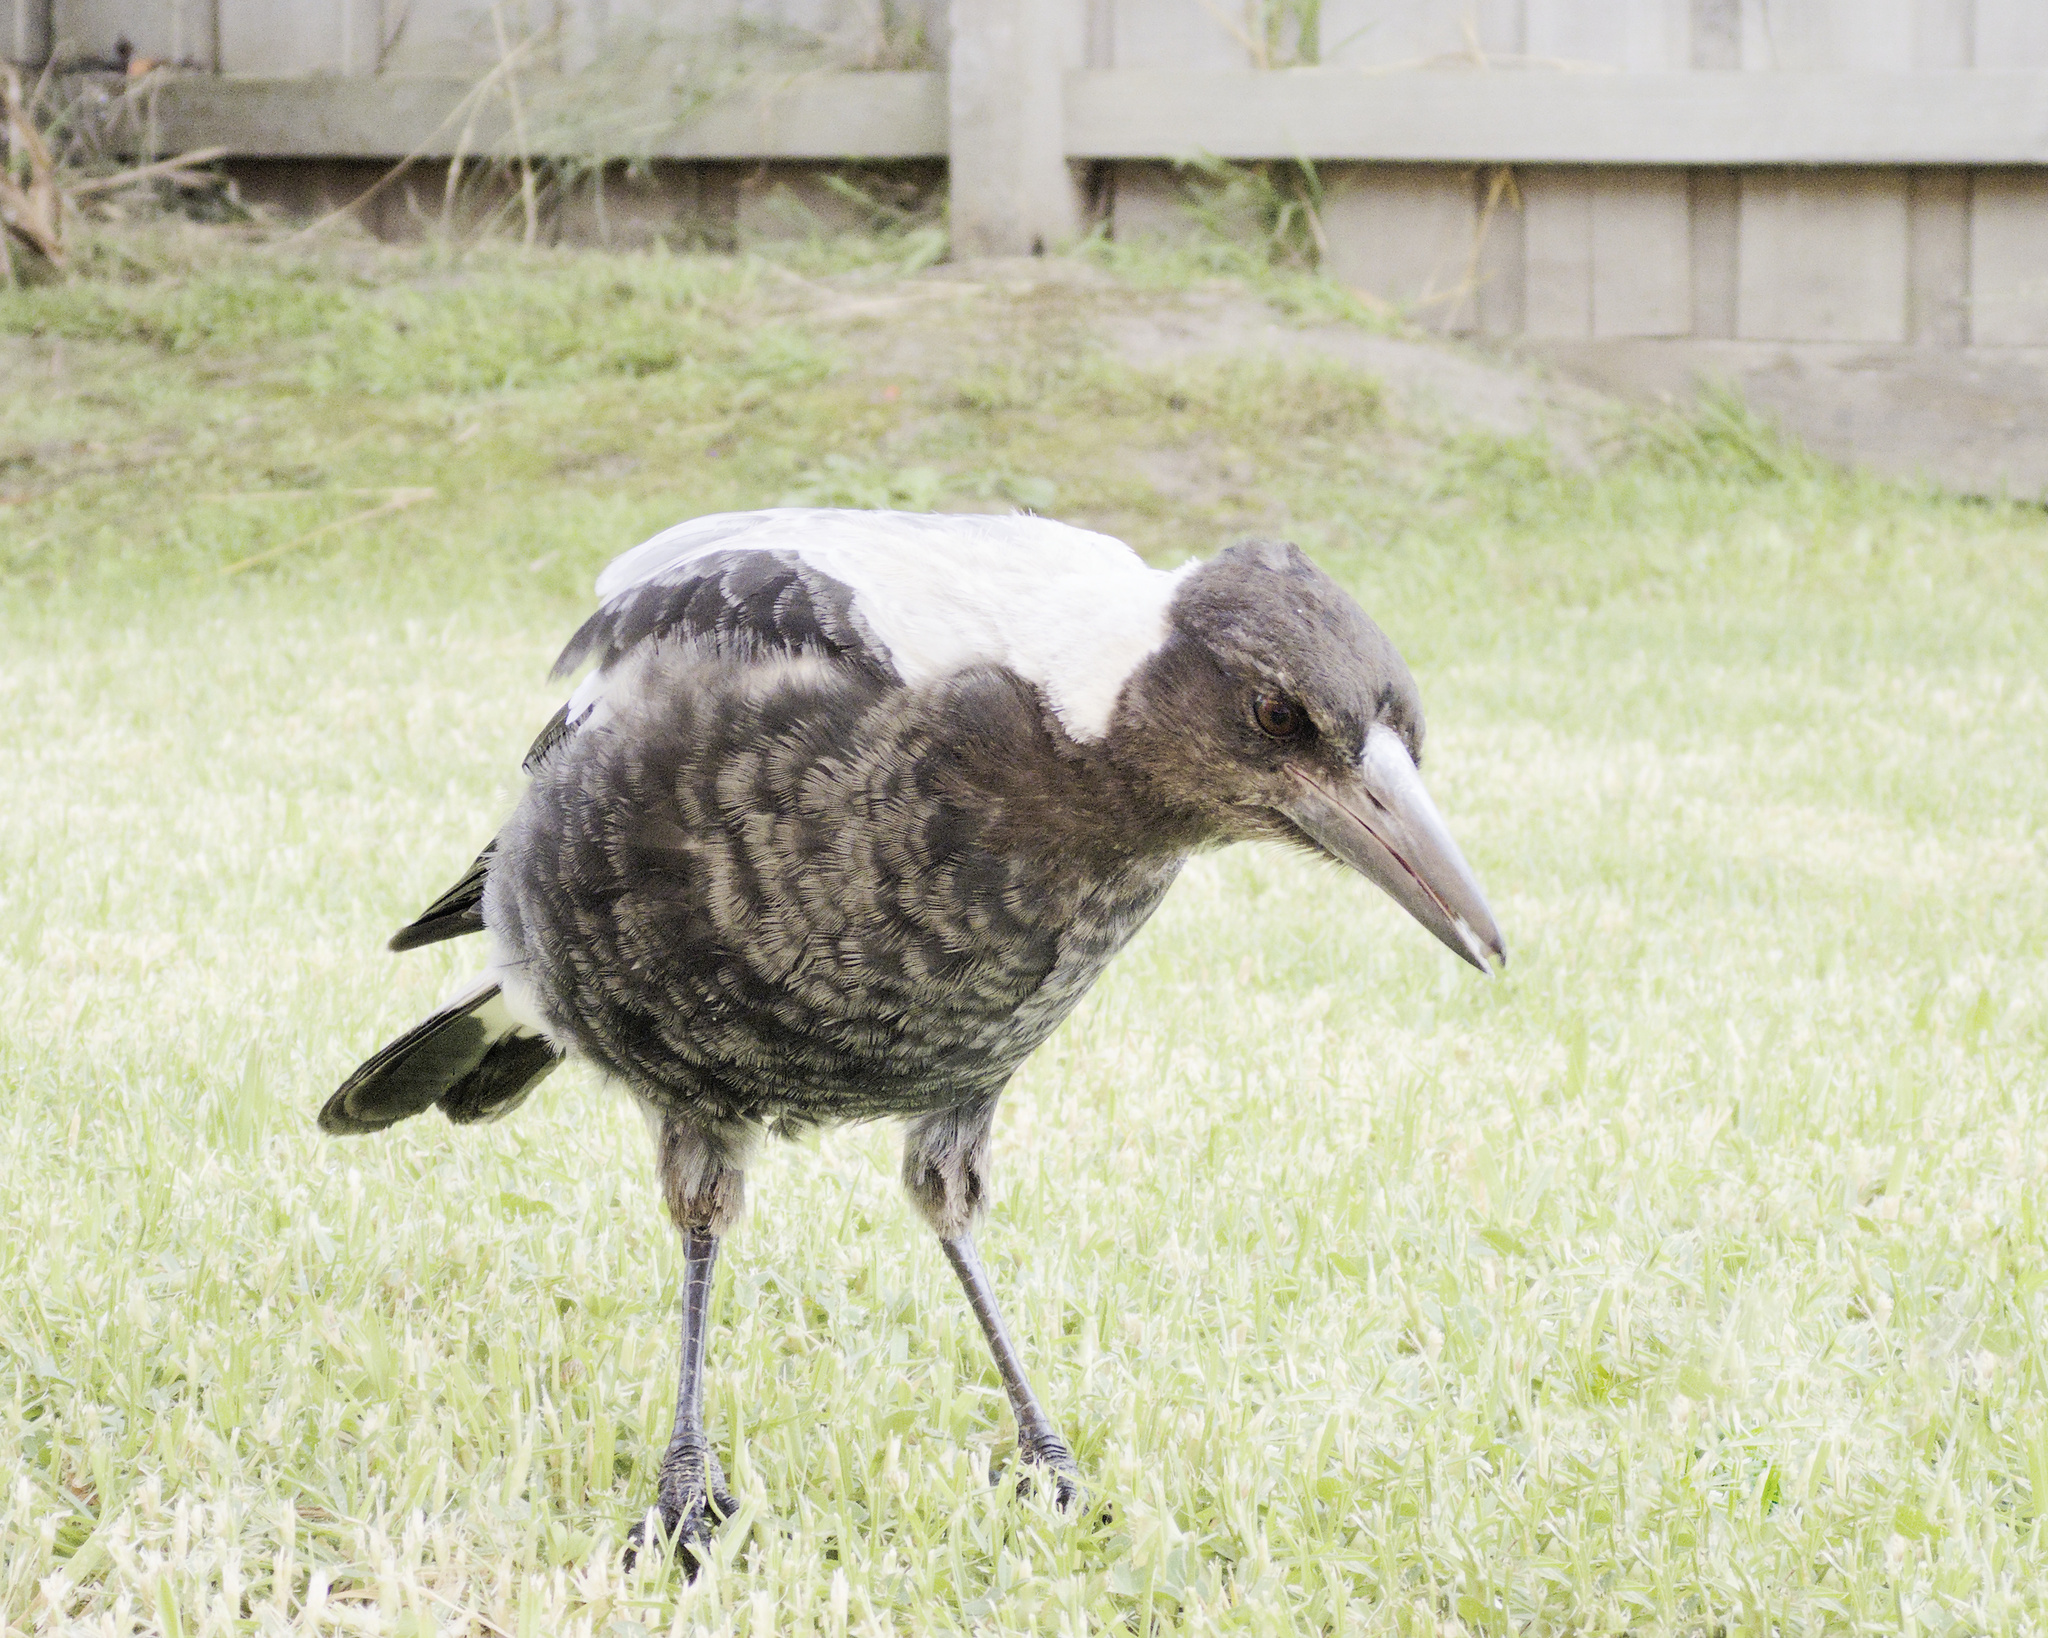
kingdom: Animalia
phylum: Chordata
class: Aves
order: Passeriformes
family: Cracticidae
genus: Gymnorhina
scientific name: Gymnorhina tibicen
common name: Australian magpie
